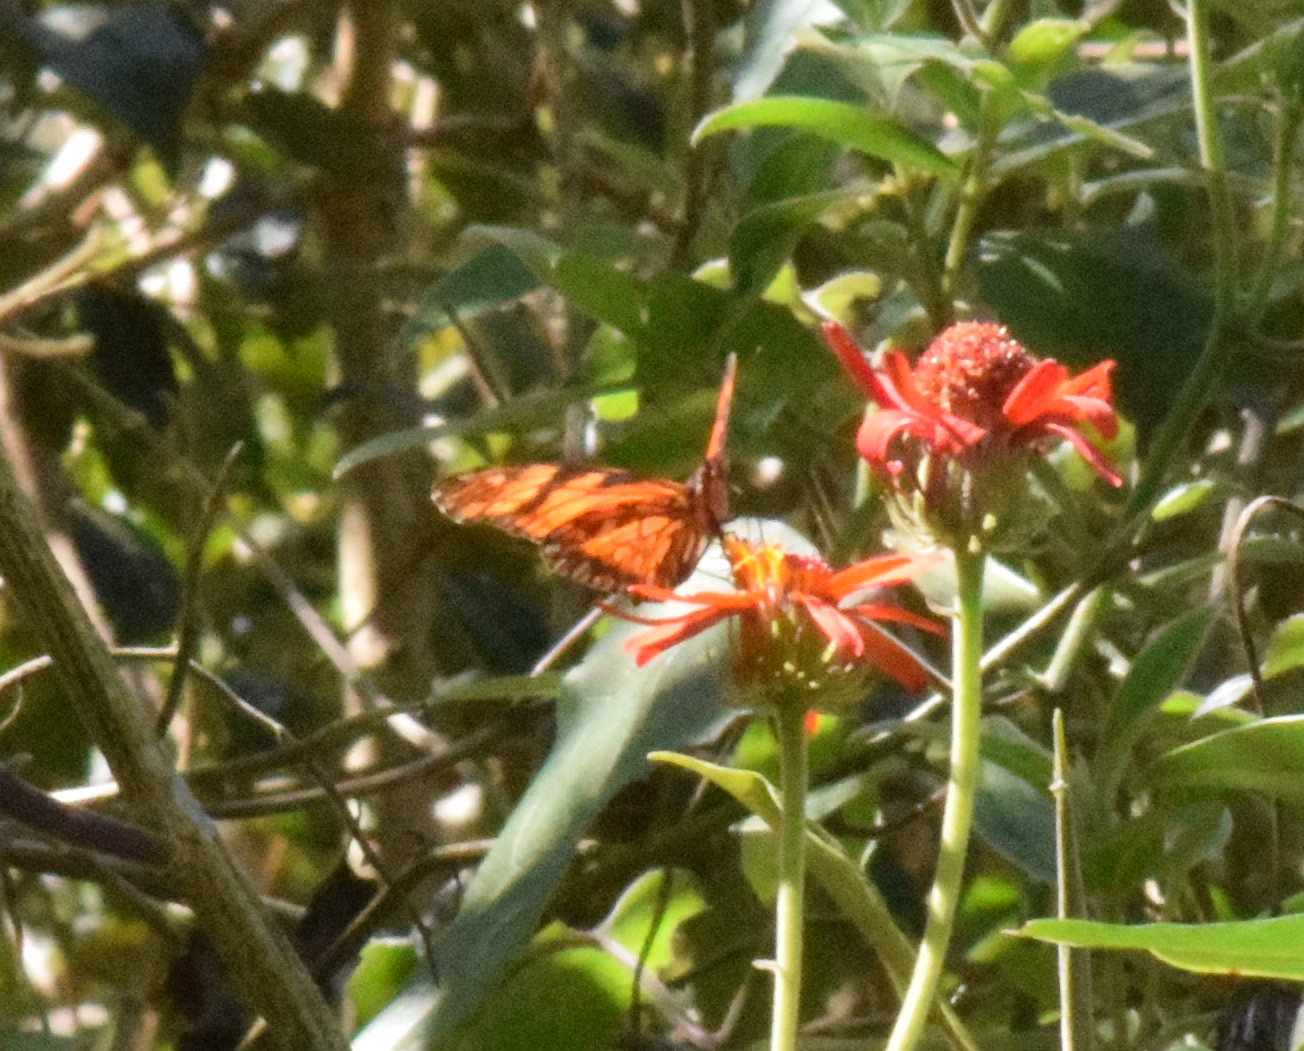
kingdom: Animalia
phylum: Arthropoda
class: Insecta
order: Lepidoptera
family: Nymphalidae
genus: Dione
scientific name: Dione juno
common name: Juno silverspot
